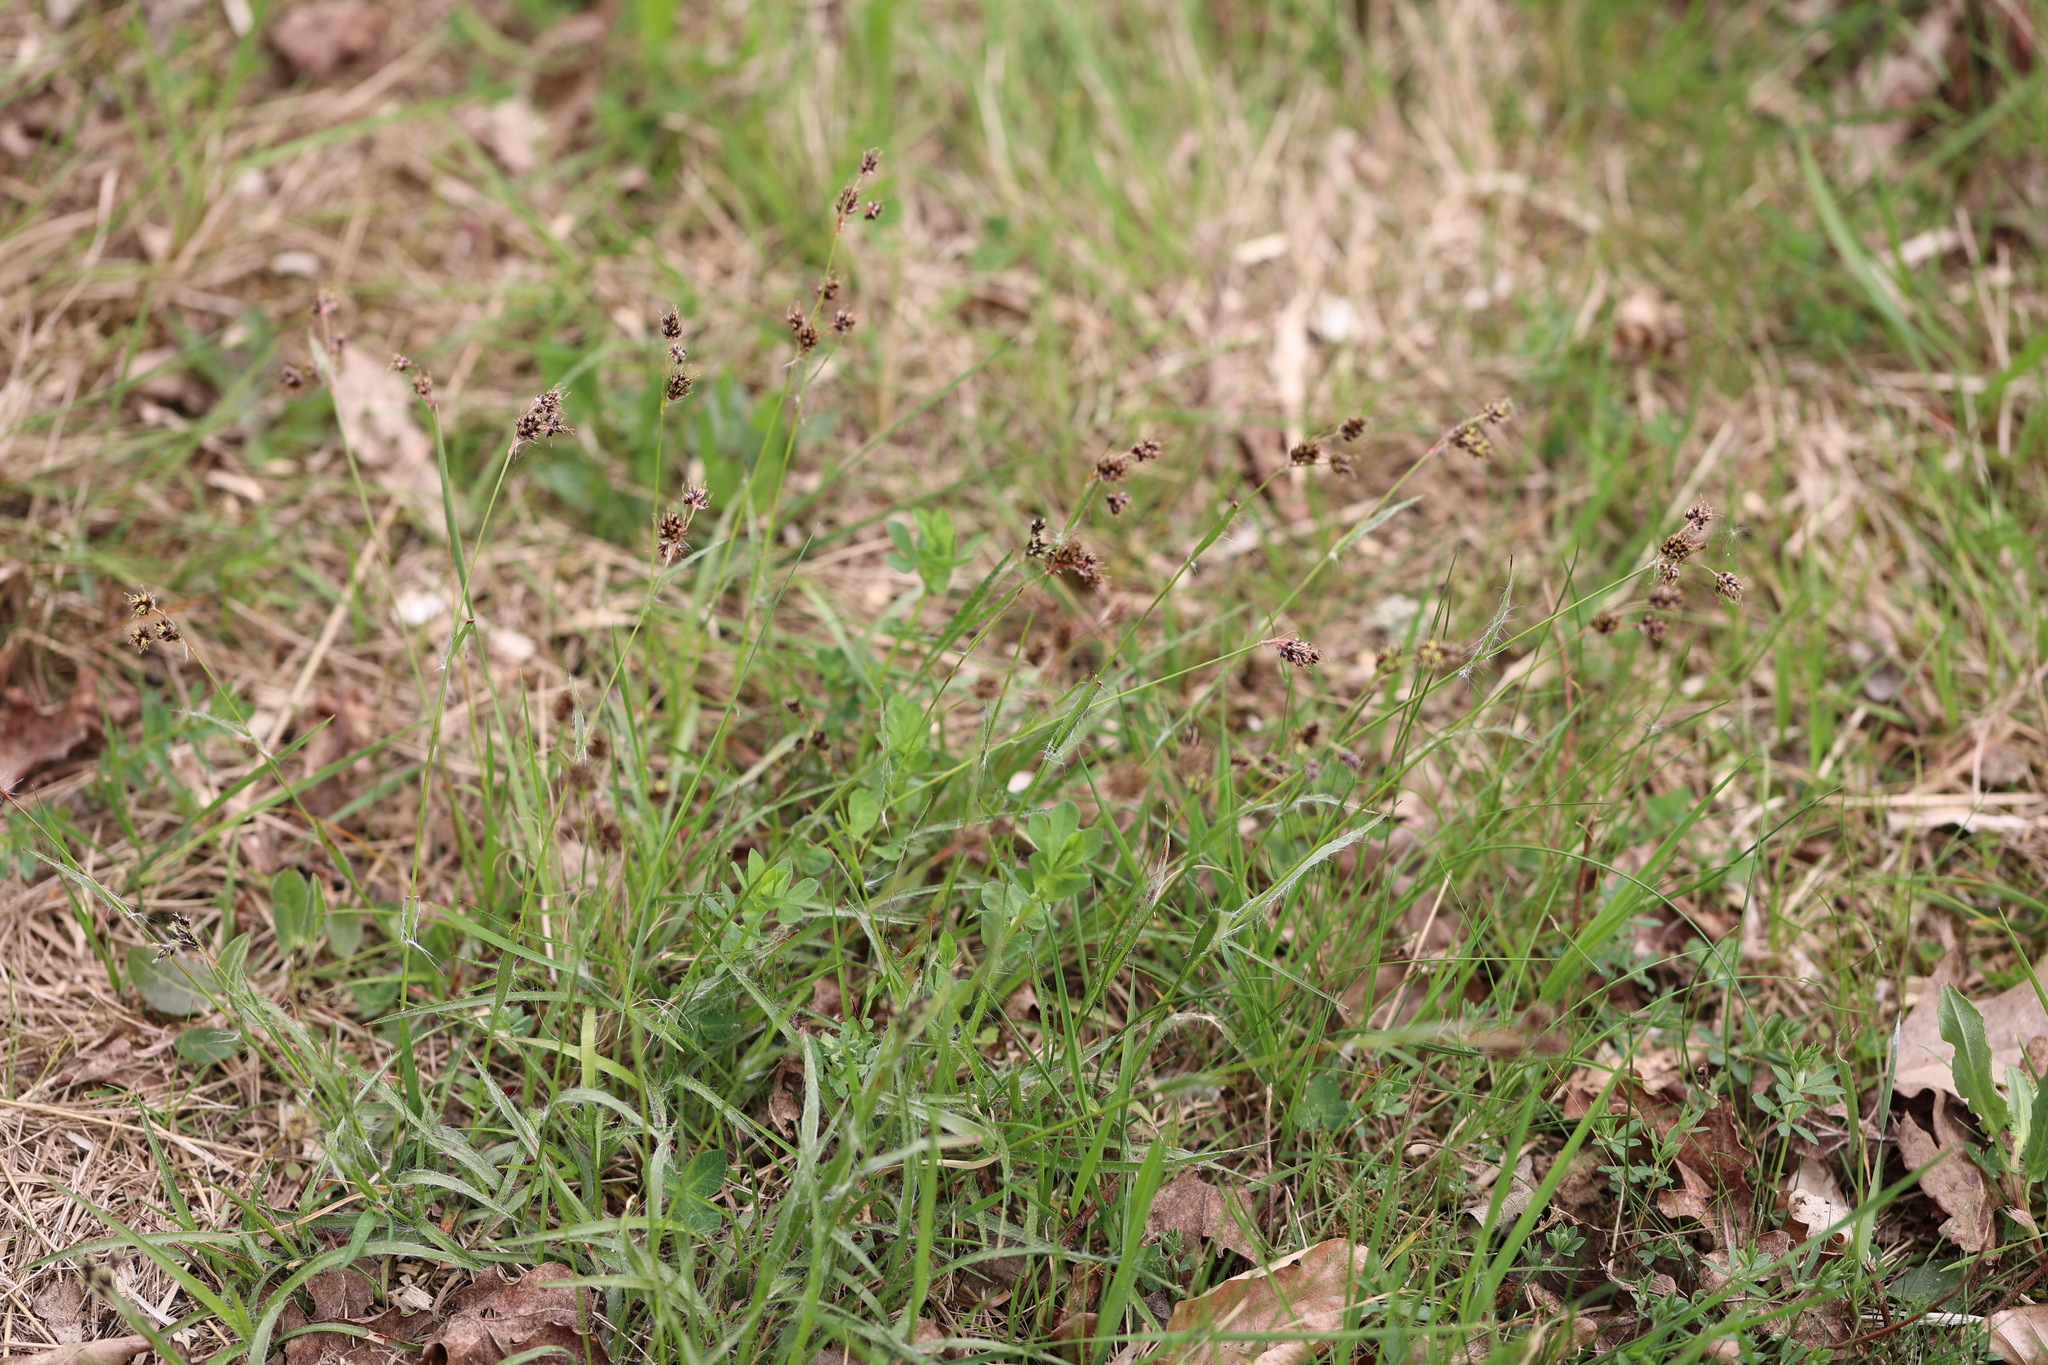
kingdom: Plantae
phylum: Tracheophyta
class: Liliopsida
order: Poales
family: Juncaceae
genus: Luzula
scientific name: Luzula campestris
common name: Field wood-rush
